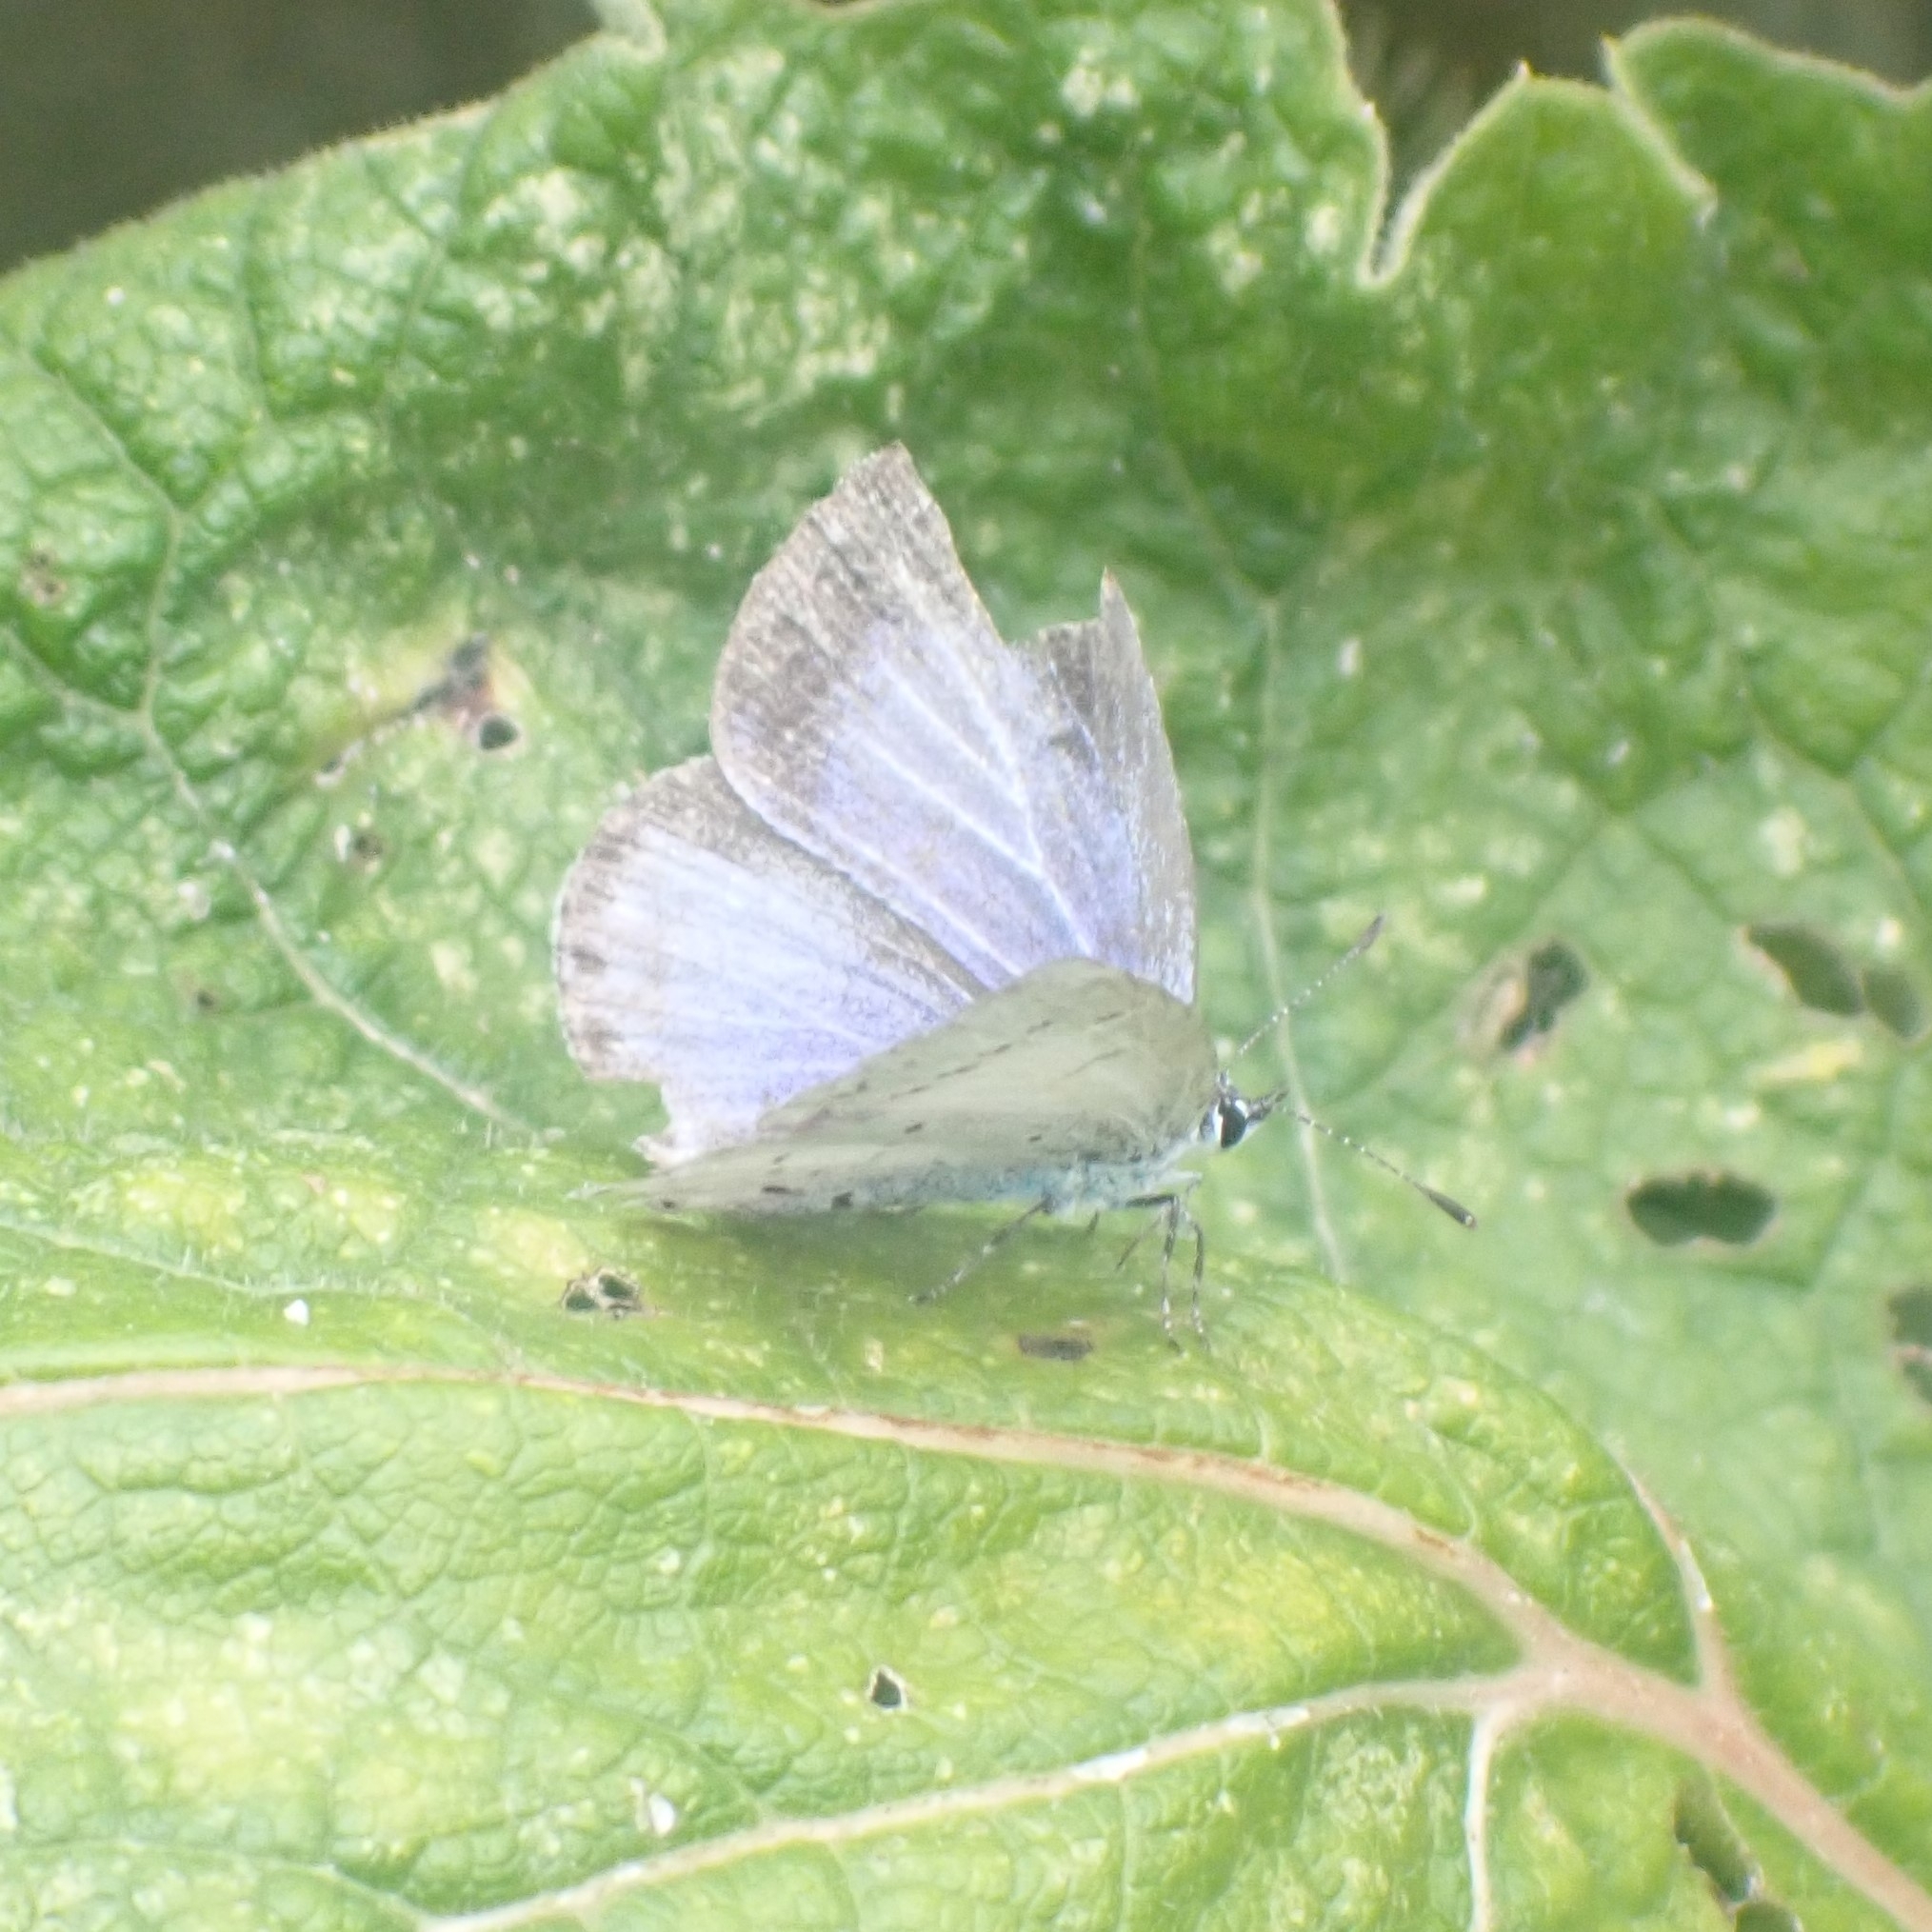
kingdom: Animalia
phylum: Arthropoda
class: Insecta
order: Lepidoptera
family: Lycaenidae
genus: Celastrina
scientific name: Celastrina argiolus
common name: Holly blue
